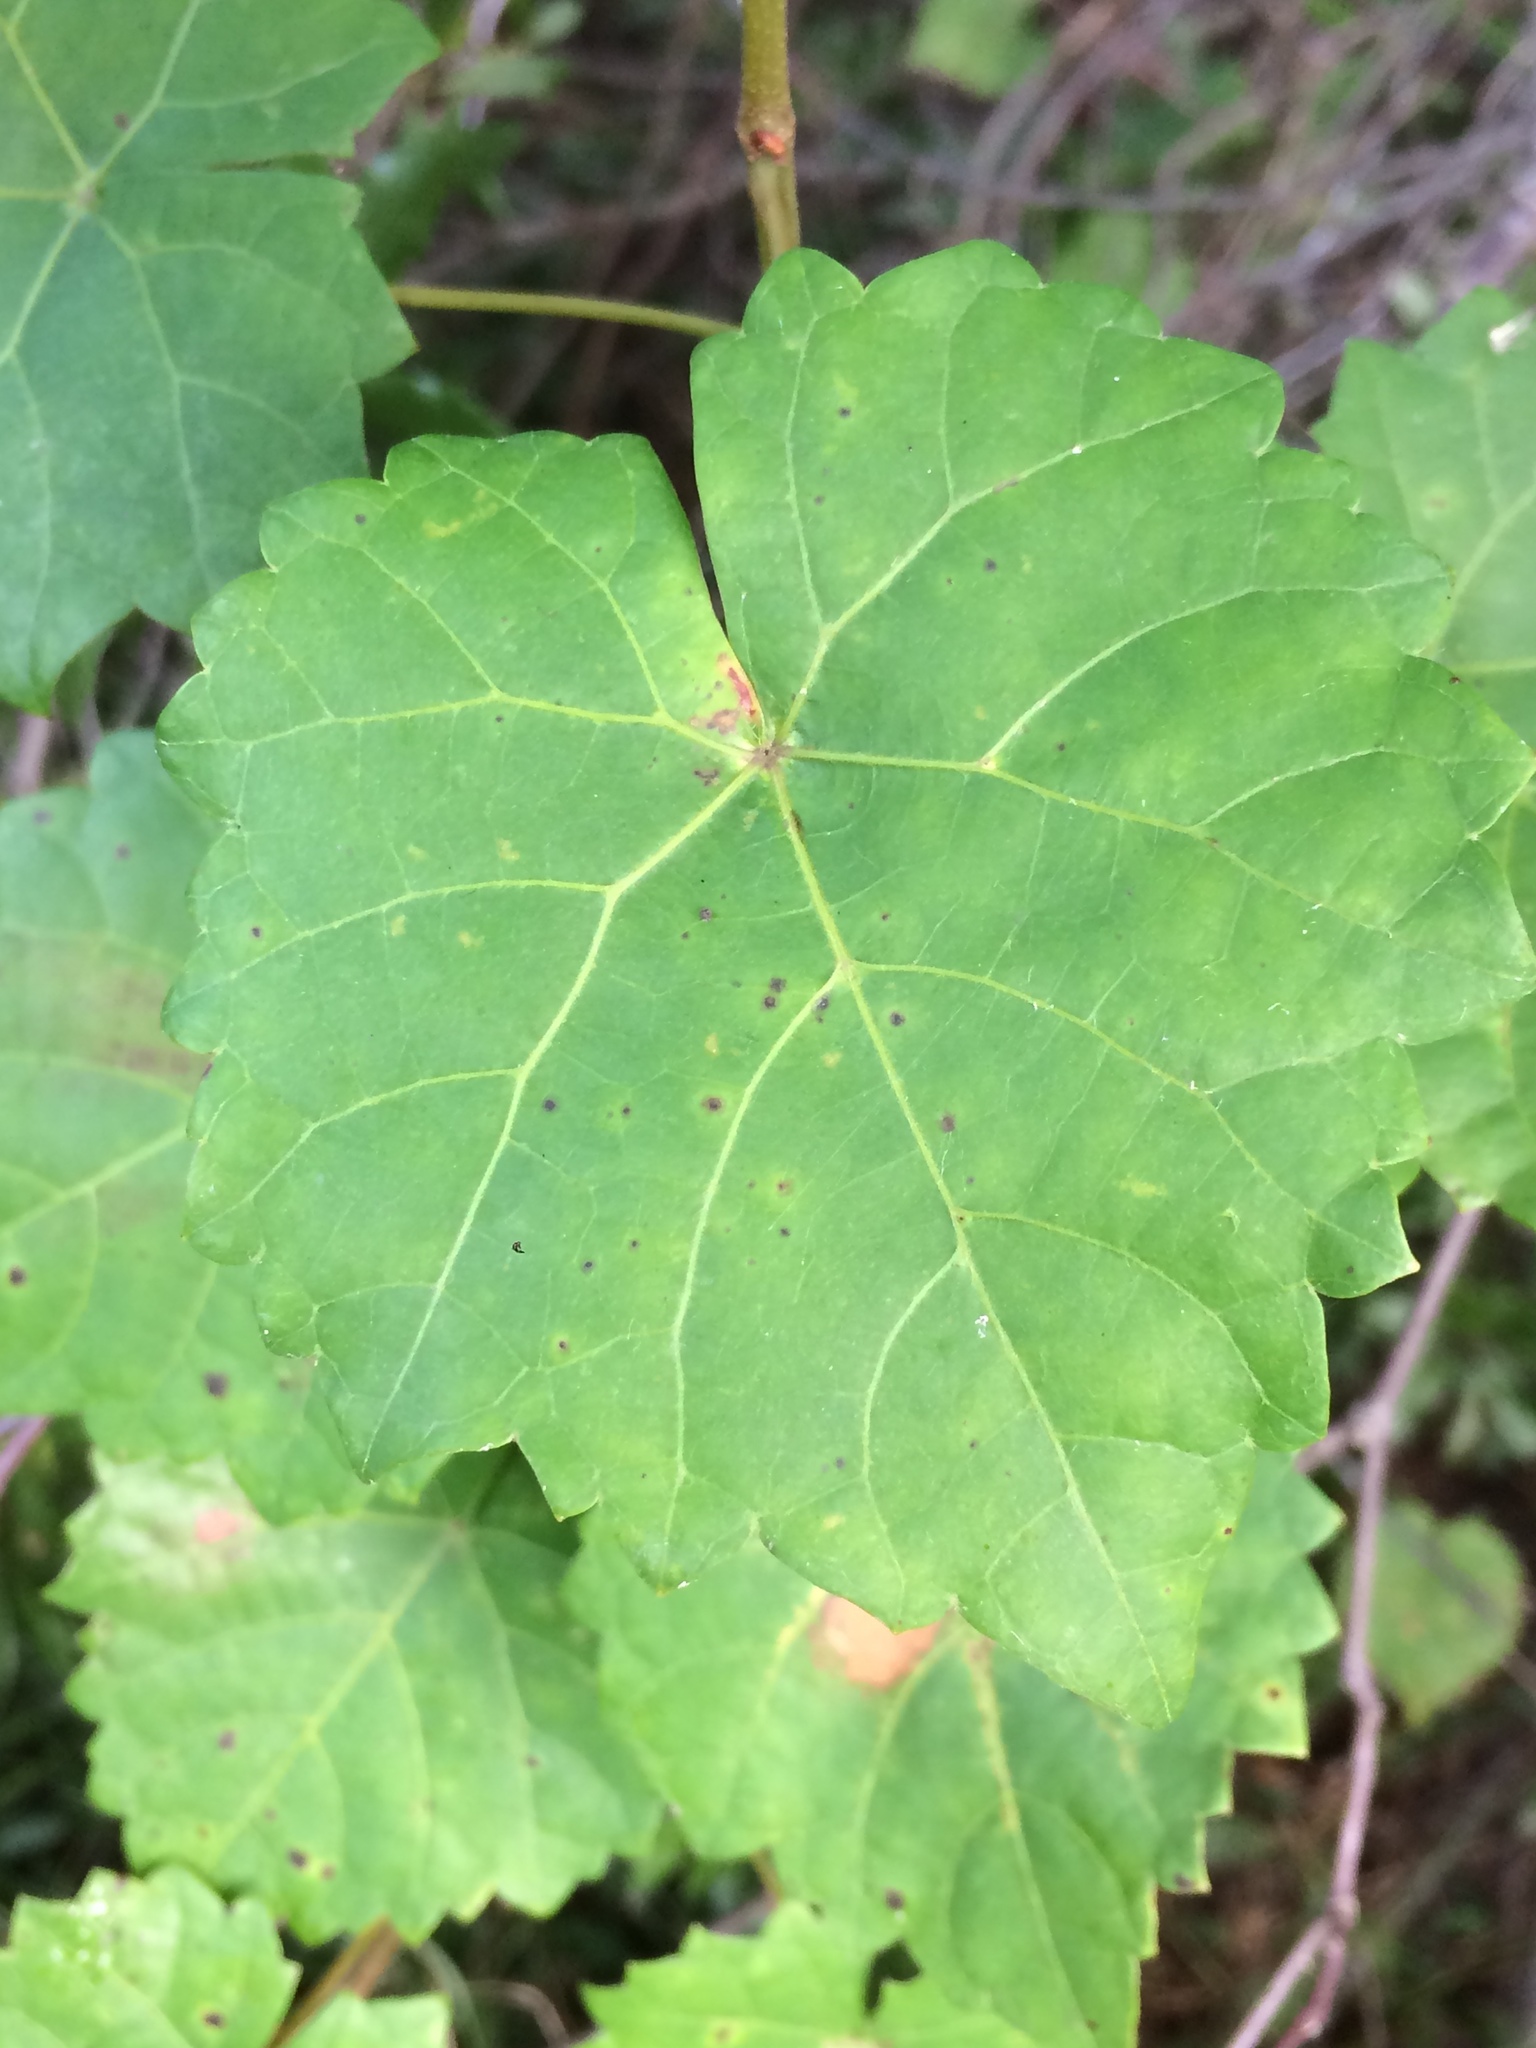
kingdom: Plantae
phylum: Tracheophyta
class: Magnoliopsida
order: Vitales
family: Vitaceae
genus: Vitis
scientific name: Vitis rotundifolia
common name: Muscadine grape
